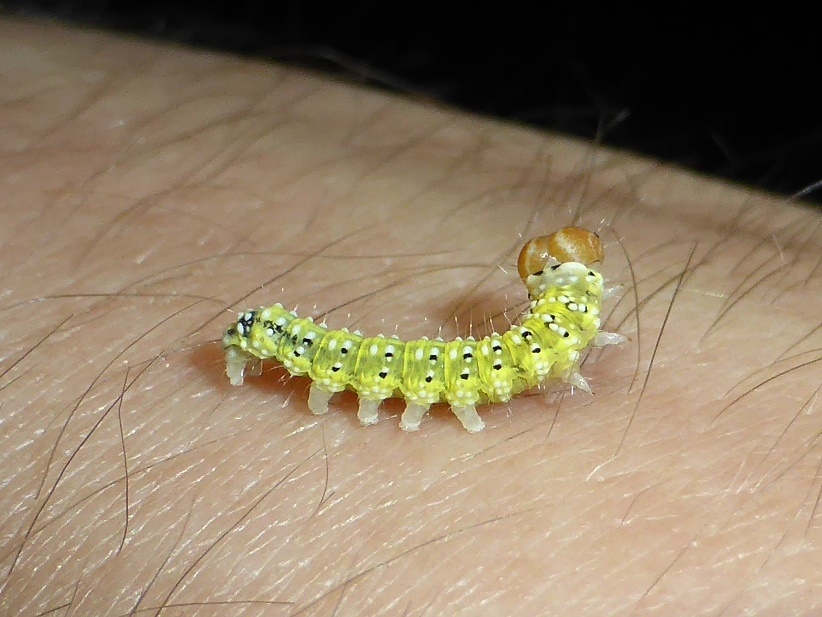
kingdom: Animalia
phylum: Arthropoda
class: Insecta
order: Lepidoptera
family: Drepanidae
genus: Polyploca
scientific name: Polyploca ridens
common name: Frosted green
